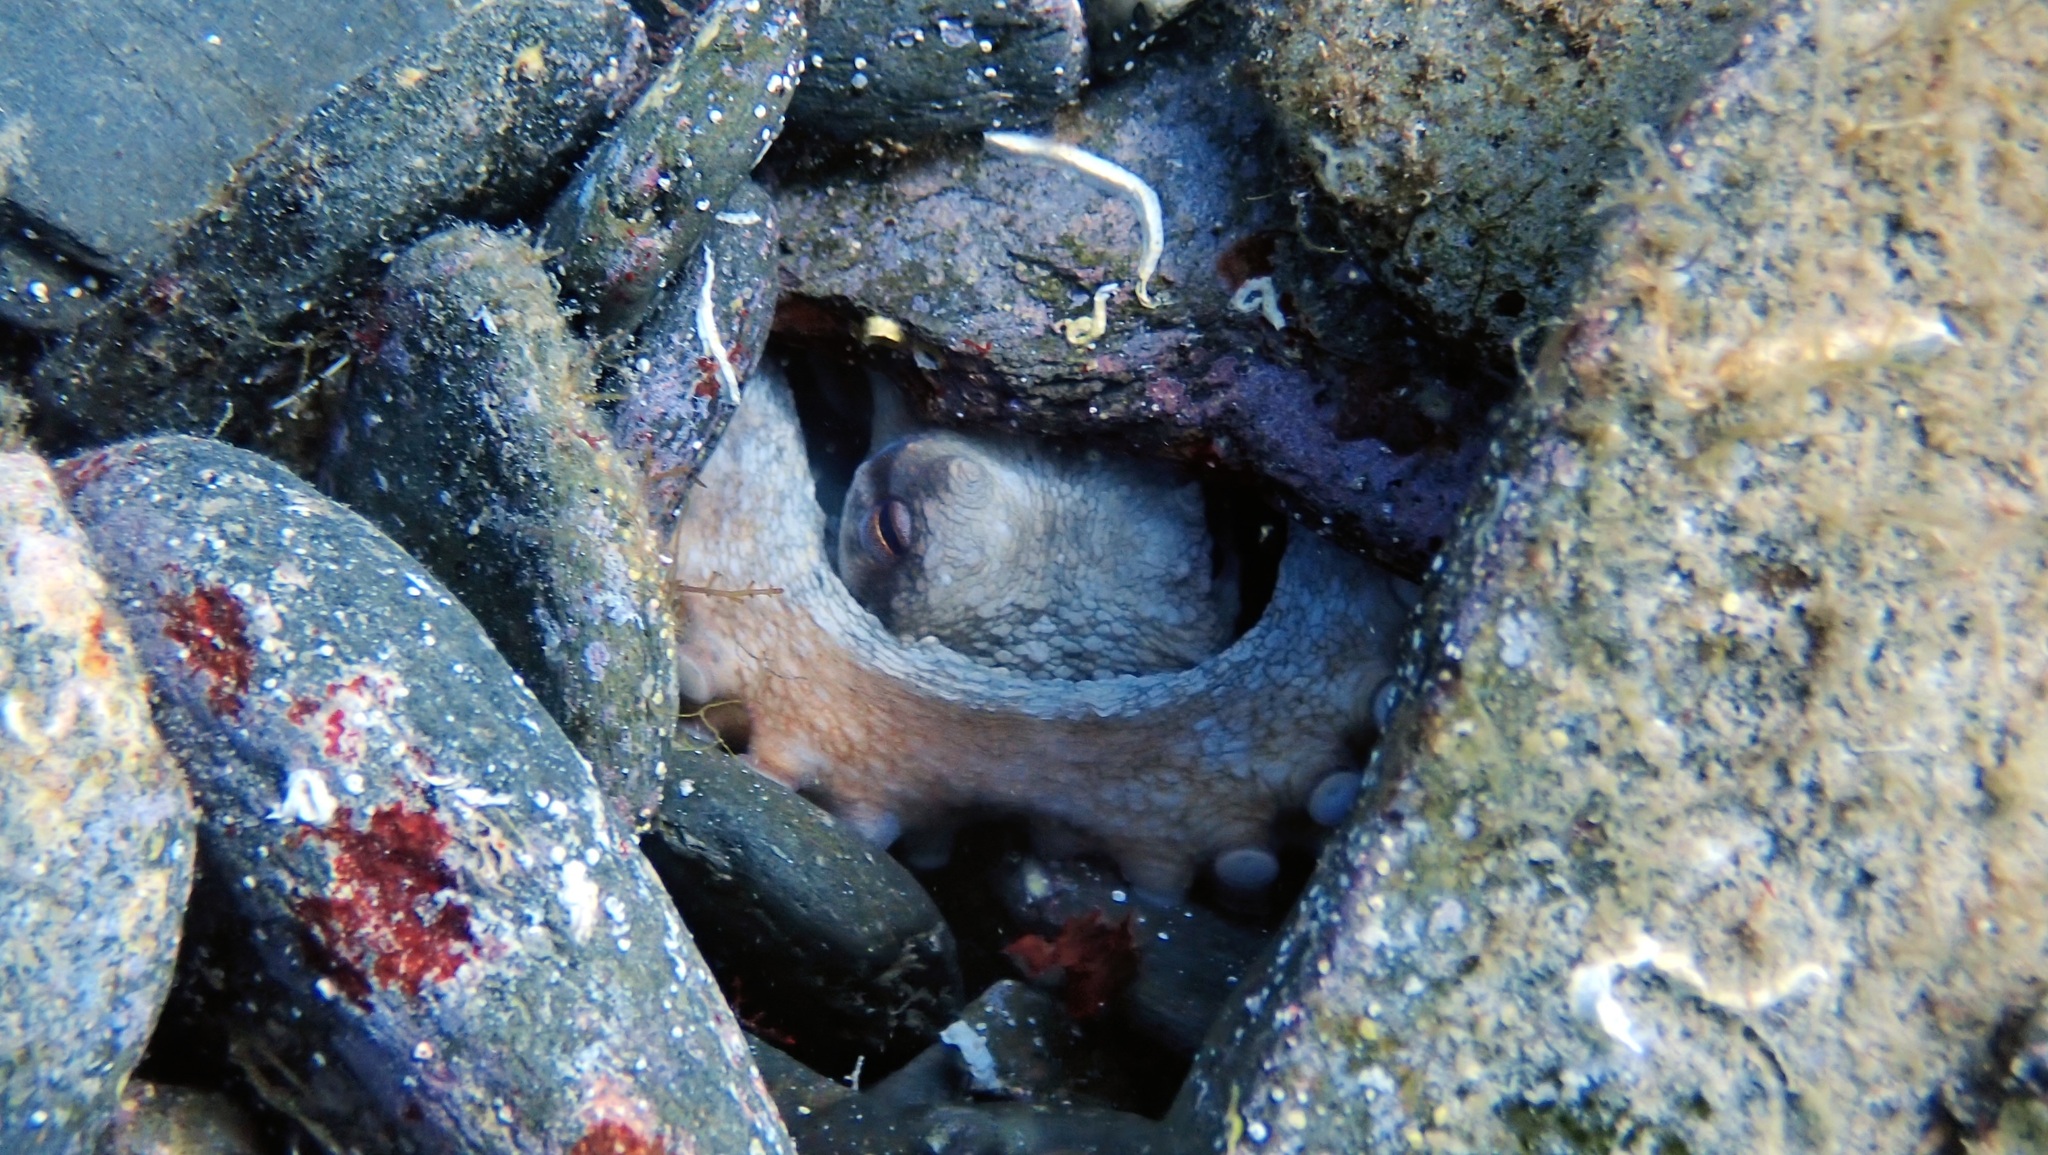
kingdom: Animalia
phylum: Mollusca
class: Cephalopoda
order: Octopoda
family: Octopodidae
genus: Octopus
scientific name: Octopus vulgaris
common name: Common octopus
